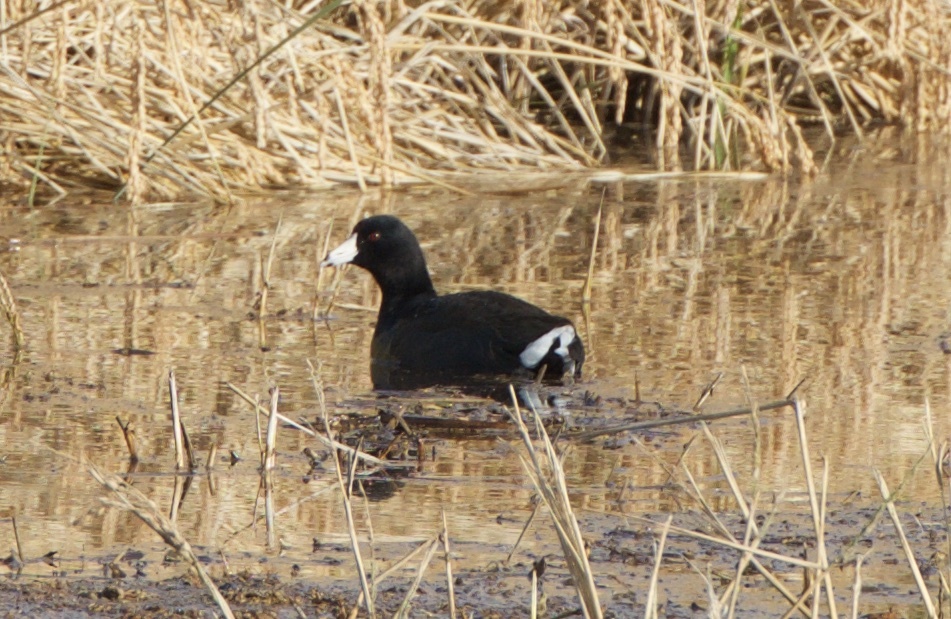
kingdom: Animalia
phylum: Chordata
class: Aves
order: Gruiformes
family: Rallidae
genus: Fulica
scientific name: Fulica americana
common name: American coot
